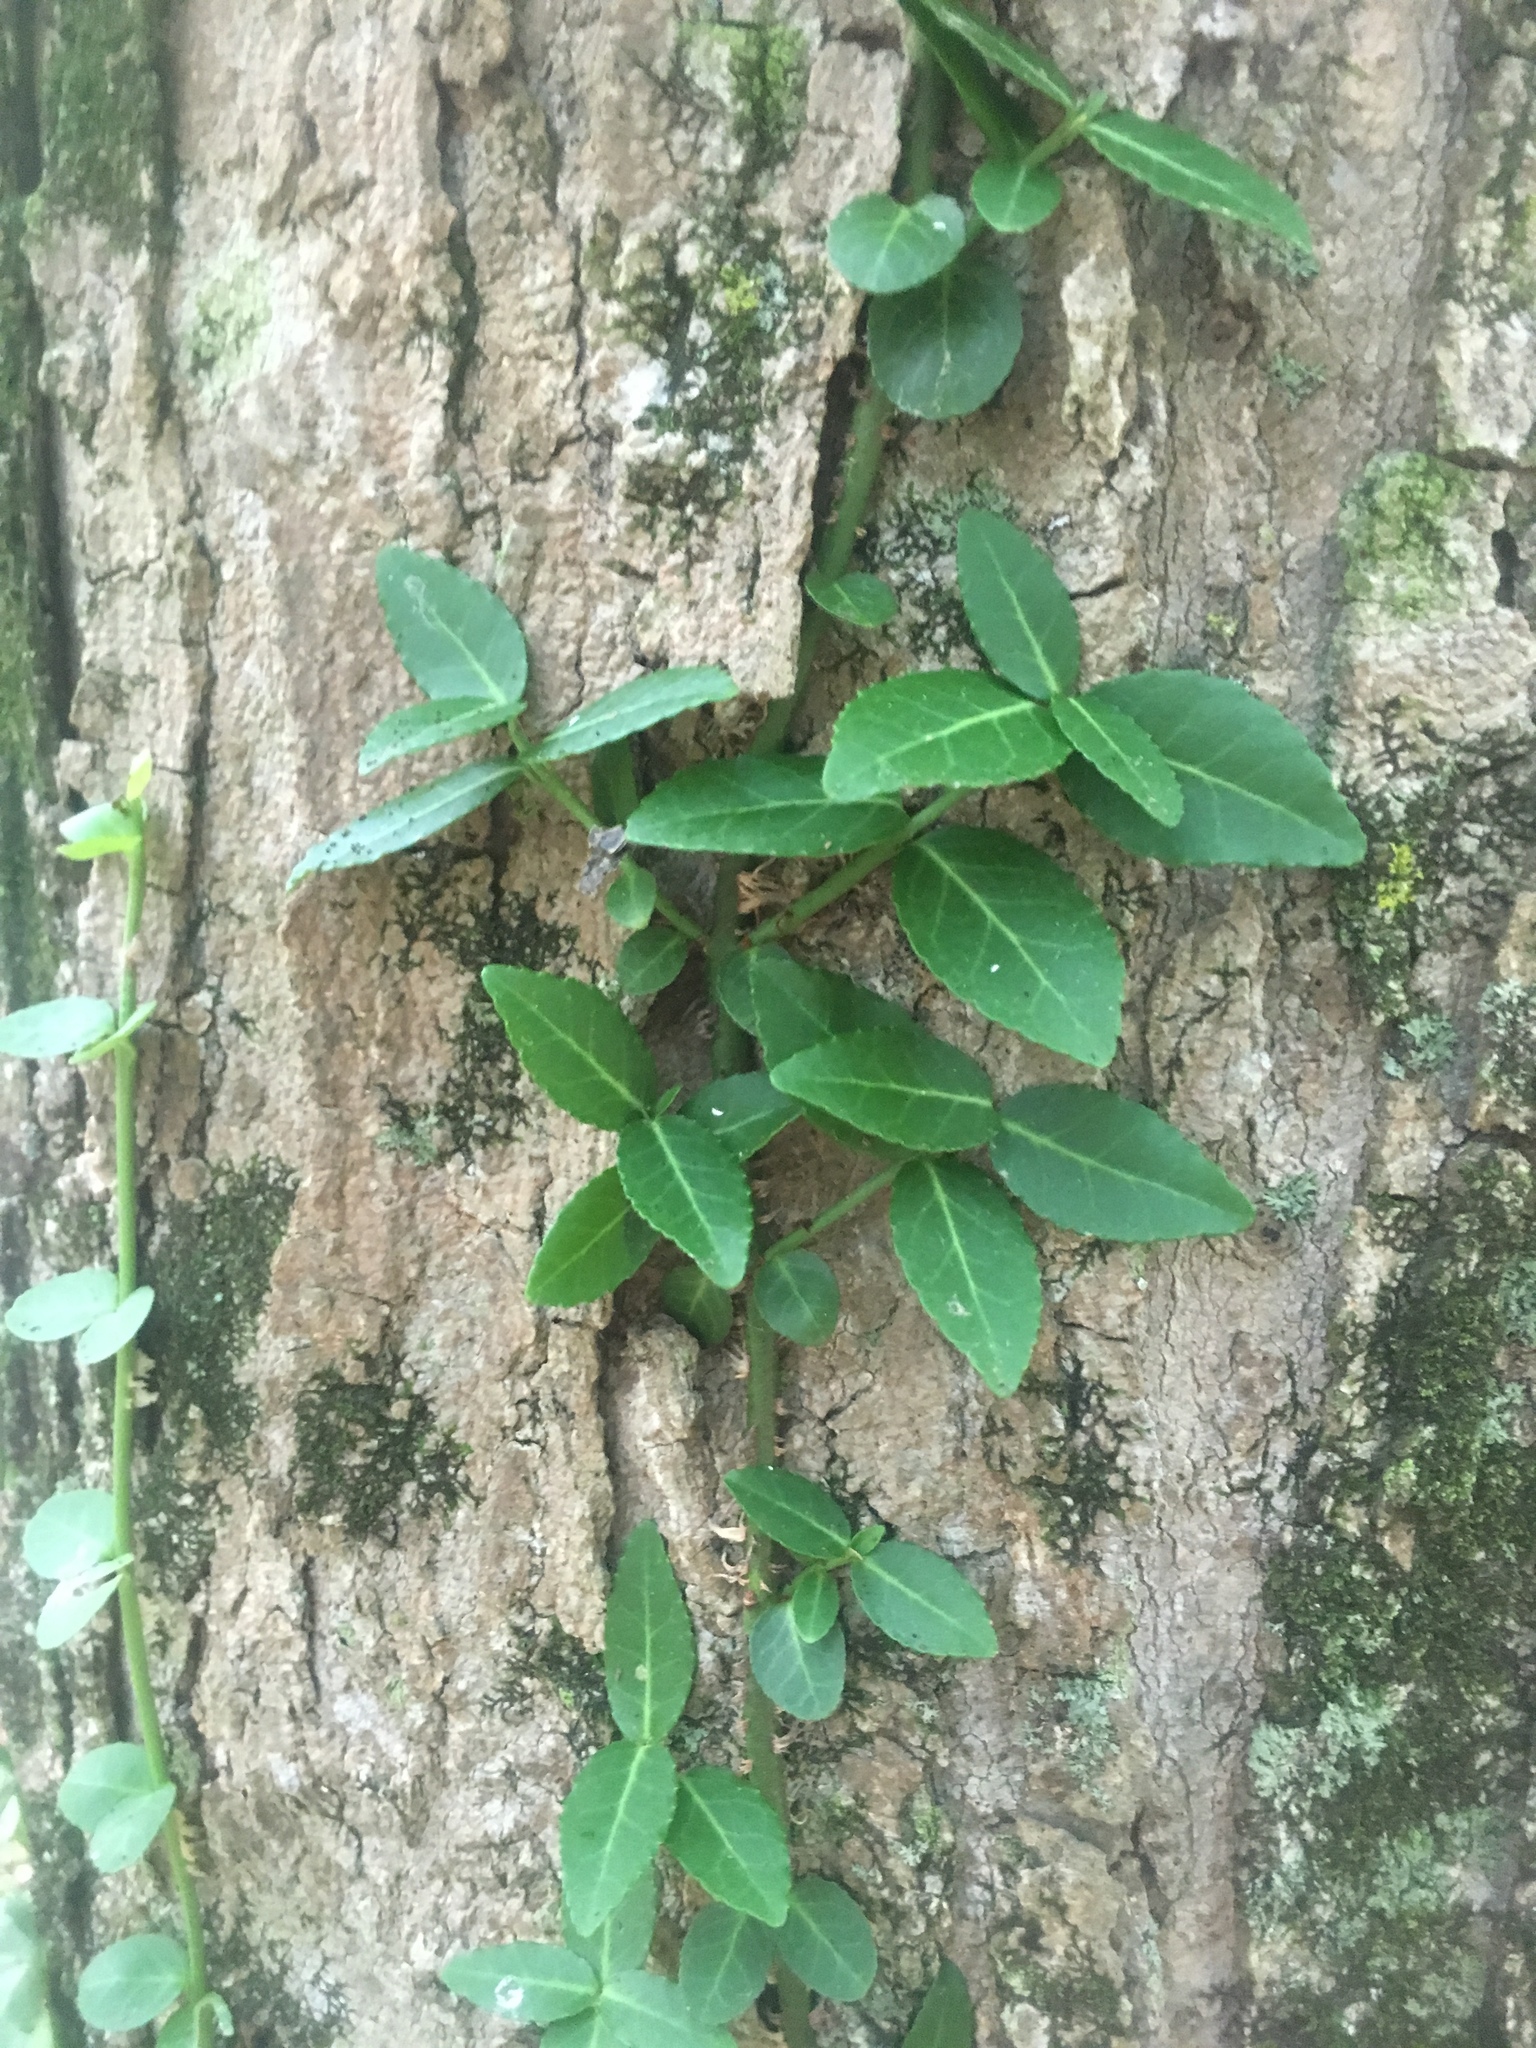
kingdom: Plantae
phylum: Tracheophyta
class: Magnoliopsida
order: Celastrales
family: Celastraceae
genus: Euonymus
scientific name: Euonymus fortunei
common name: Climbing euonymus
